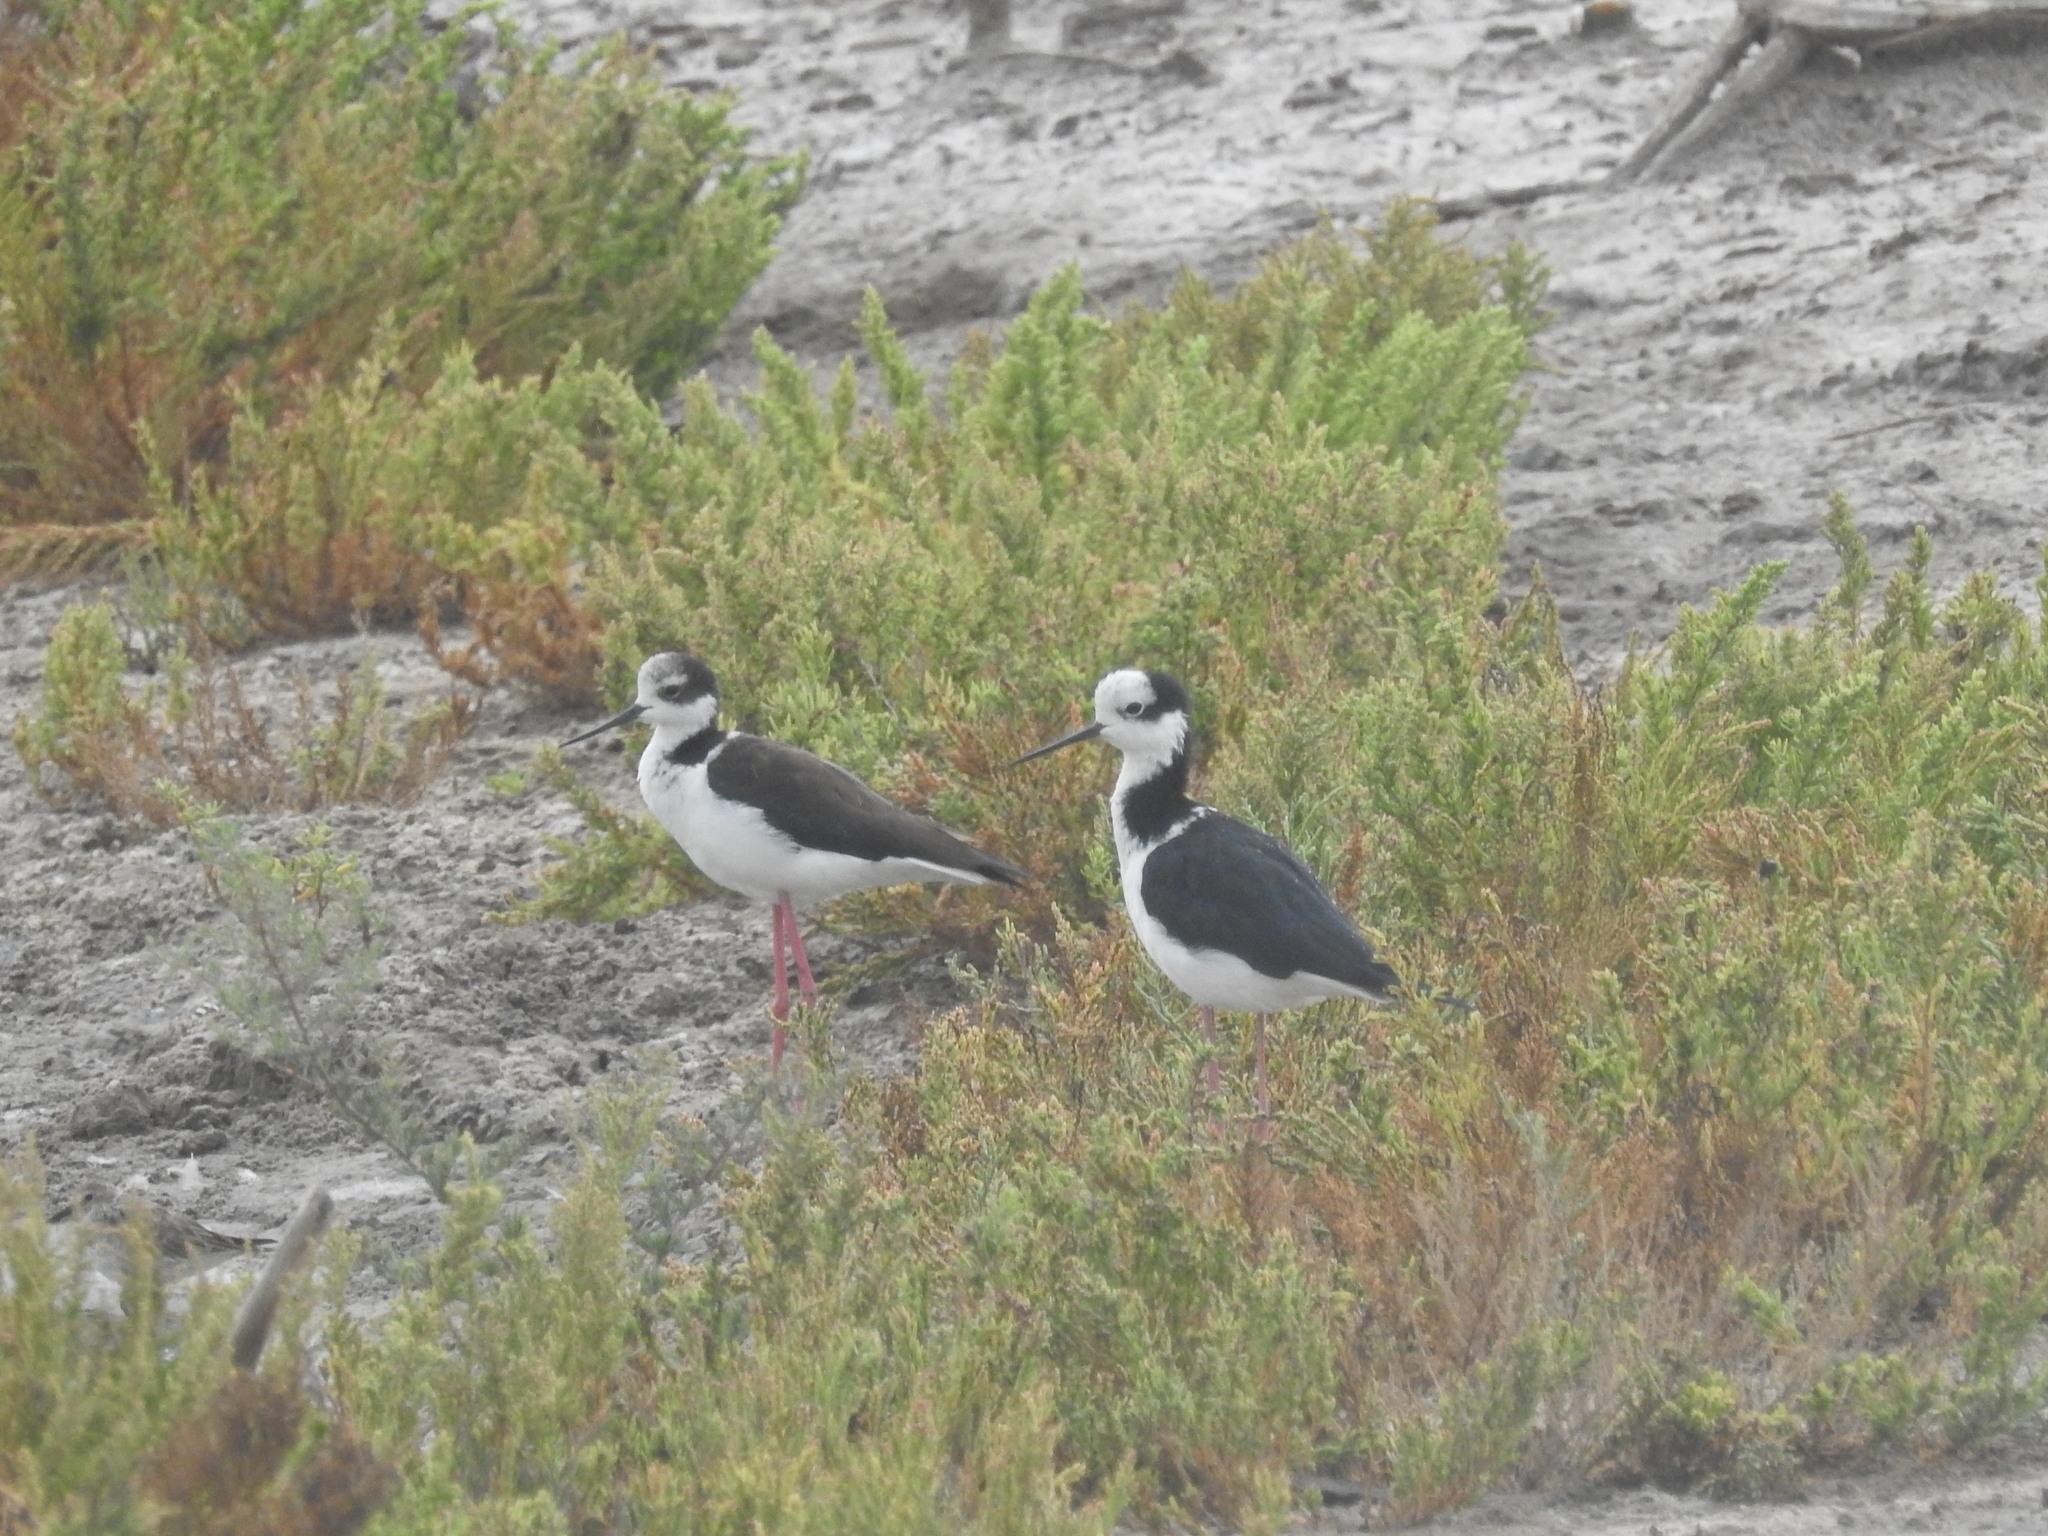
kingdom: Animalia
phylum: Chordata
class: Aves
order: Charadriiformes
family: Recurvirostridae
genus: Himantopus
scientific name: Himantopus mexicanus
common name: Black-necked stilt
